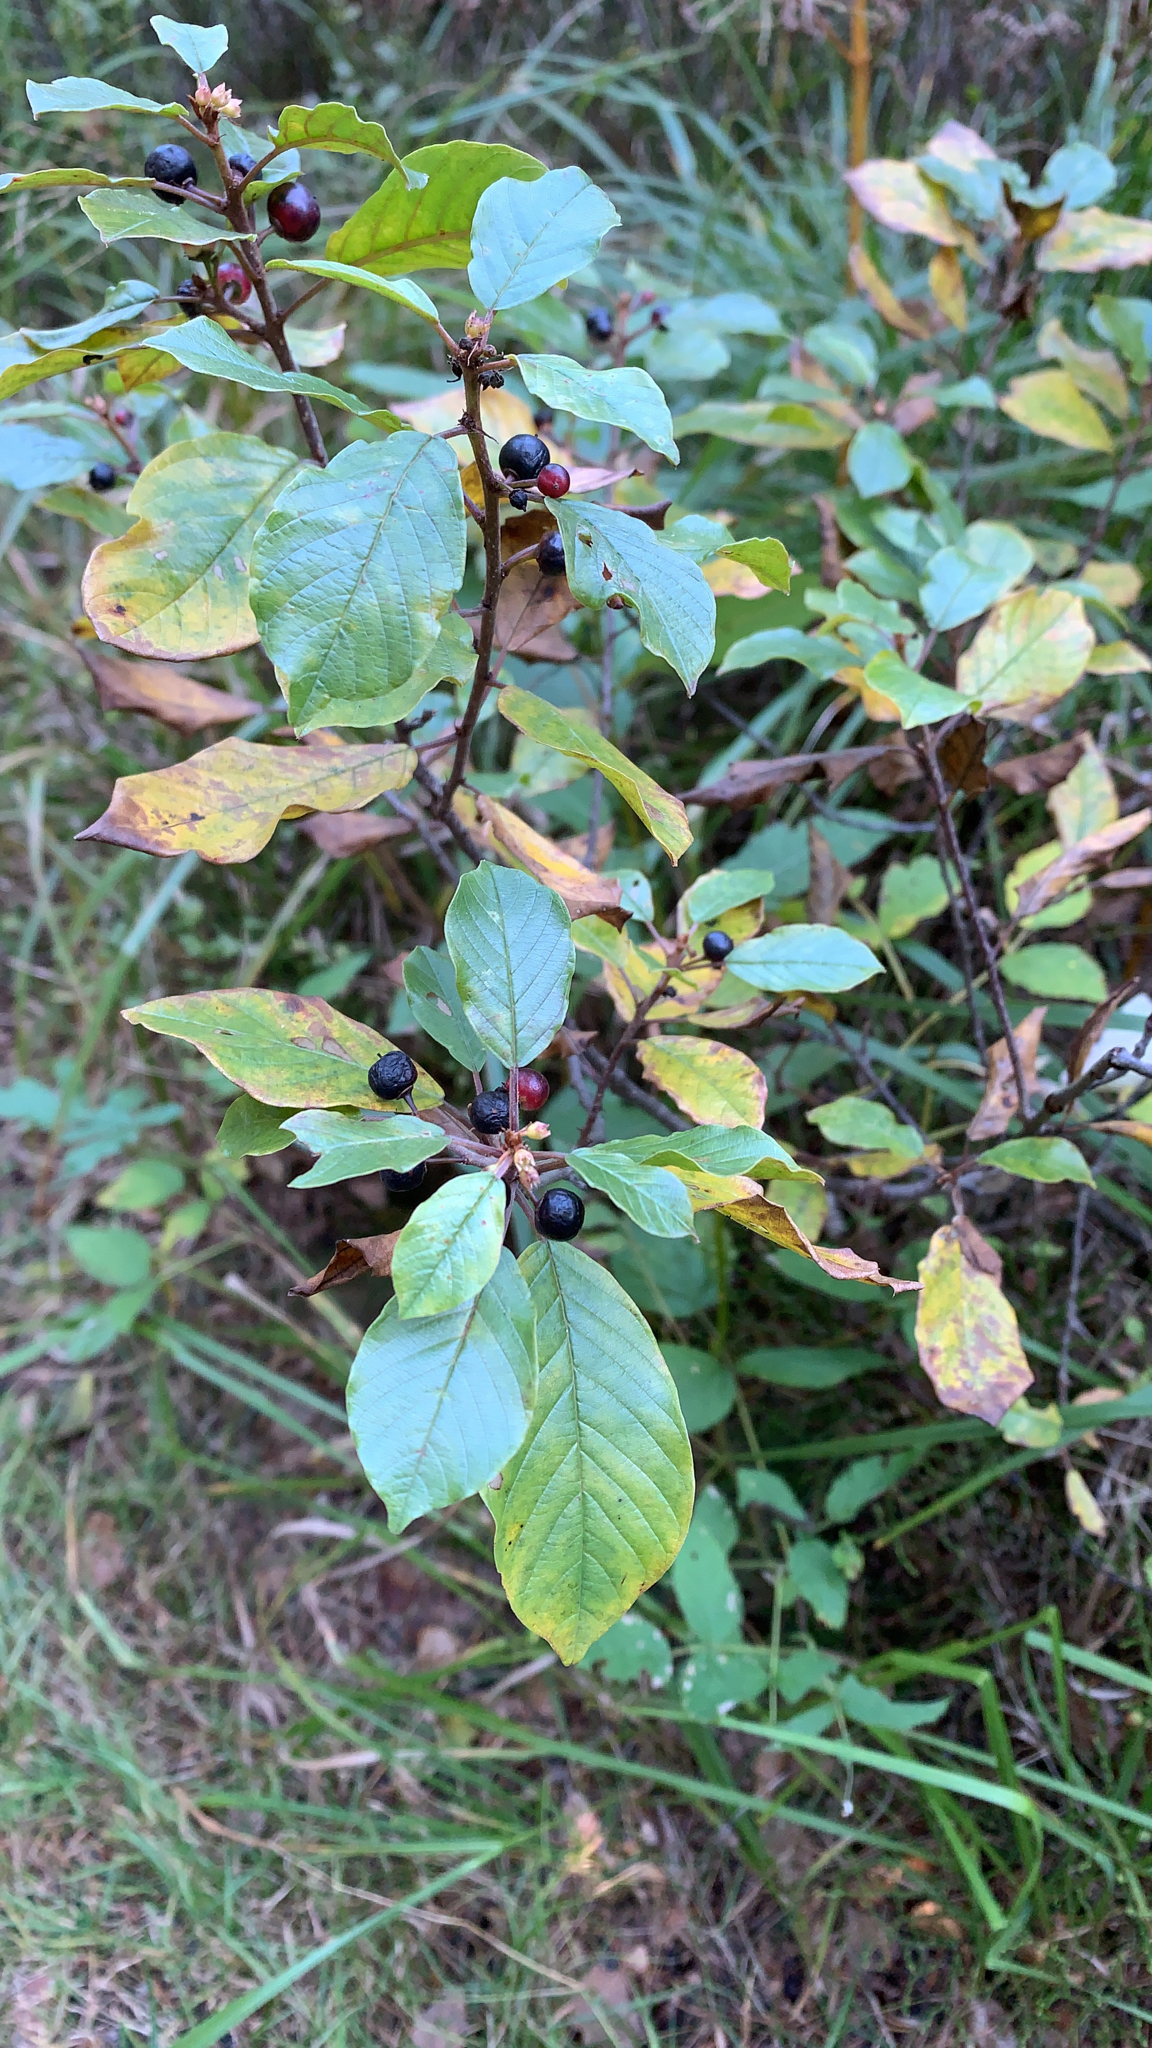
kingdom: Plantae
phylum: Tracheophyta
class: Magnoliopsida
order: Rosales
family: Rhamnaceae
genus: Frangula
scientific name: Frangula alnus
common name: Alder buckthorn
